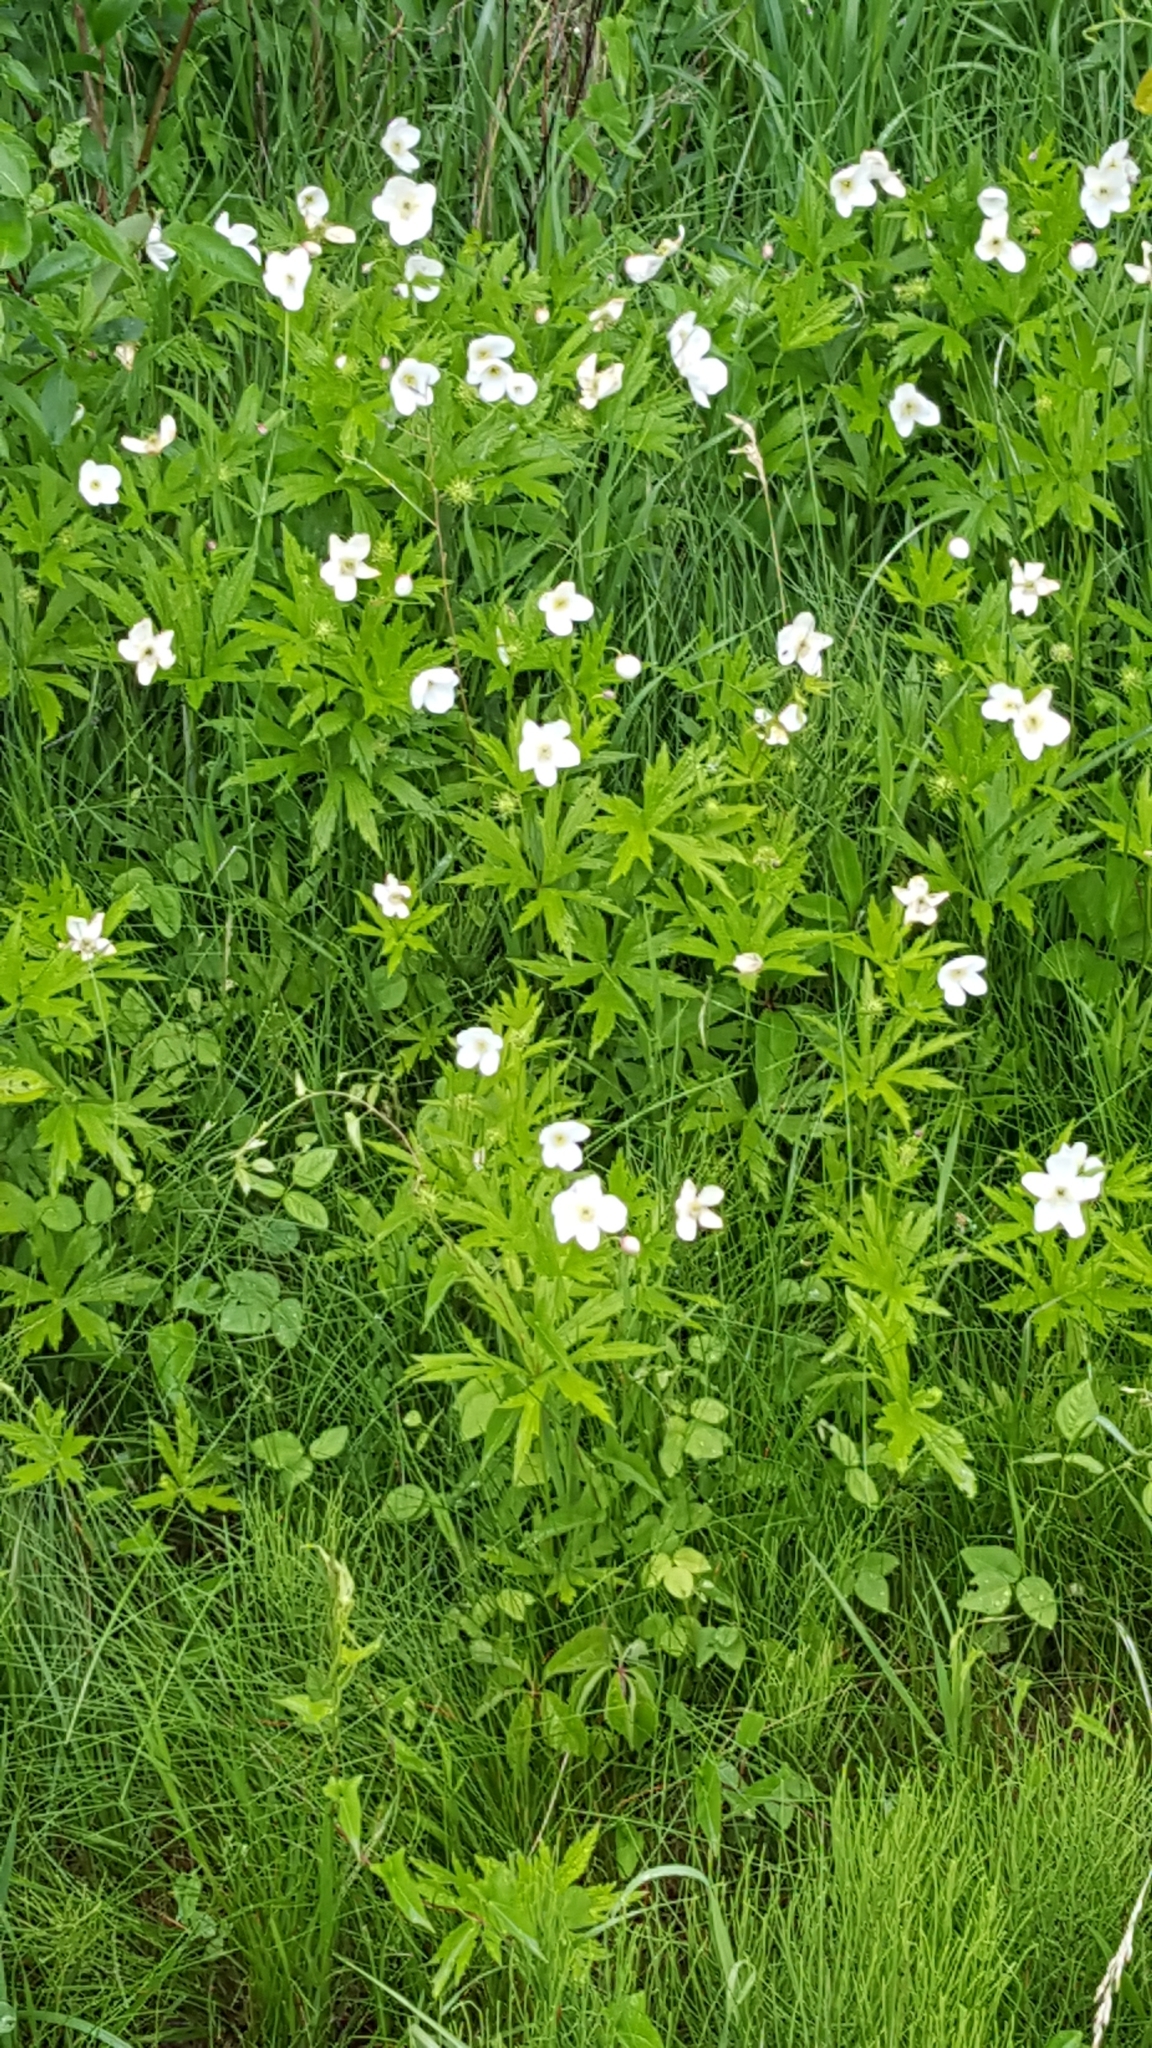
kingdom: Plantae
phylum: Tracheophyta
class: Magnoliopsida
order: Ranunculales
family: Ranunculaceae
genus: Anemonastrum
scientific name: Anemonastrum canadense
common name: Canada anemone
